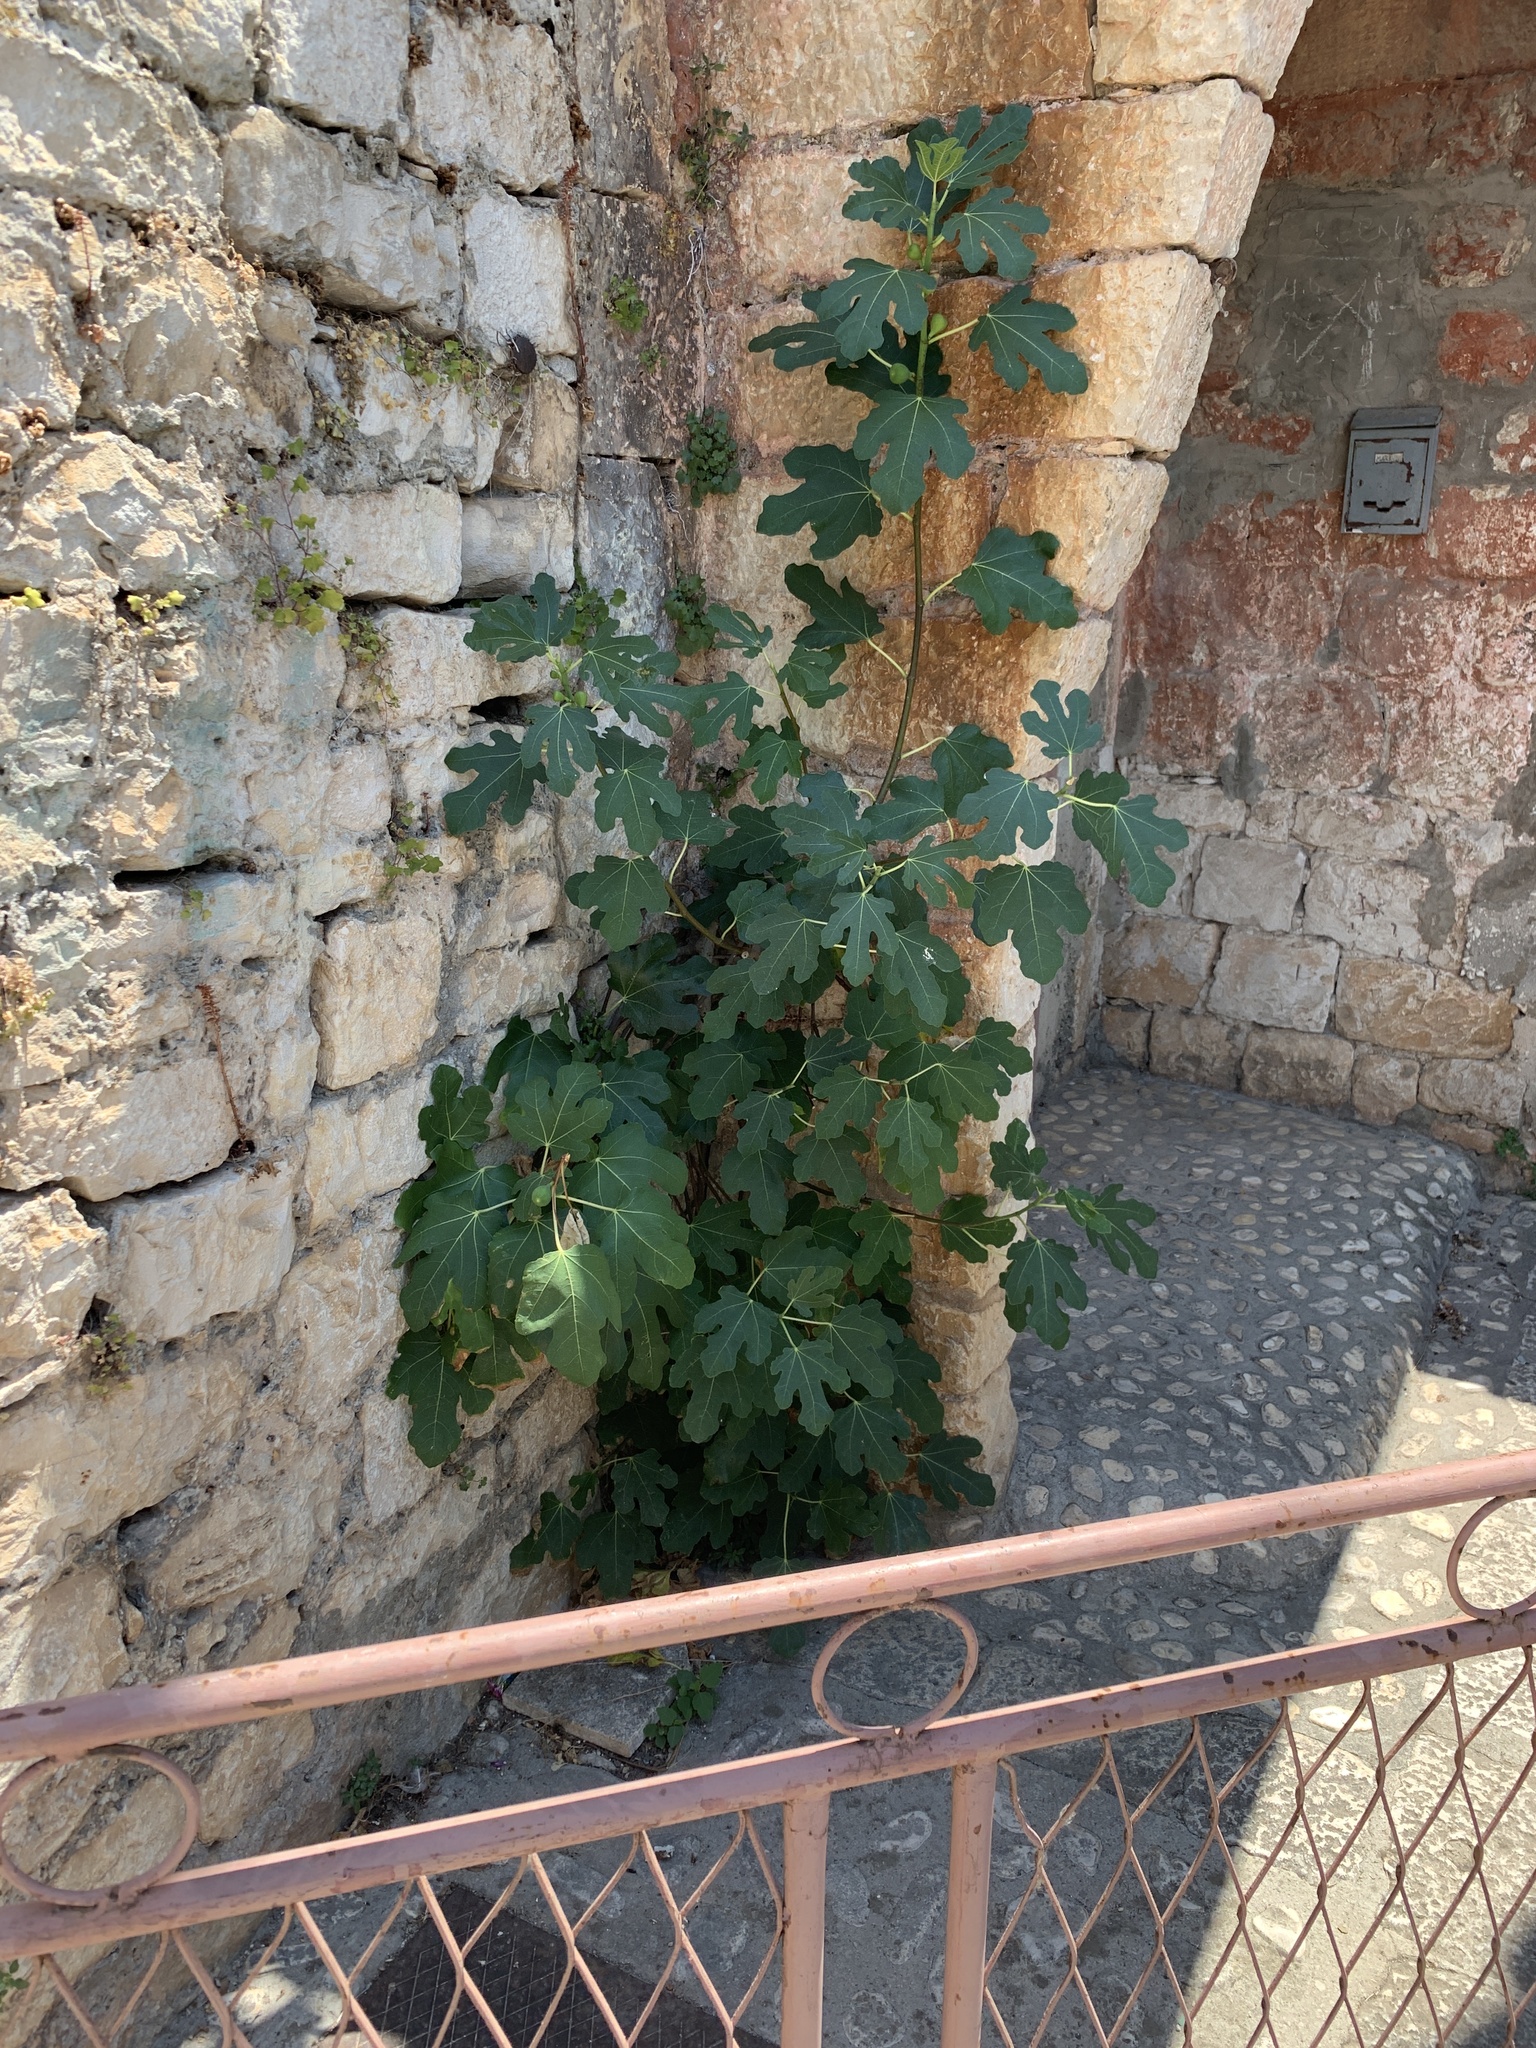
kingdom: Plantae
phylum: Tracheophyta
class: Magnoliopsida
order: Rosales
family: Moraceae
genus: Ficus
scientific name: Ficus carica
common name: Fig
